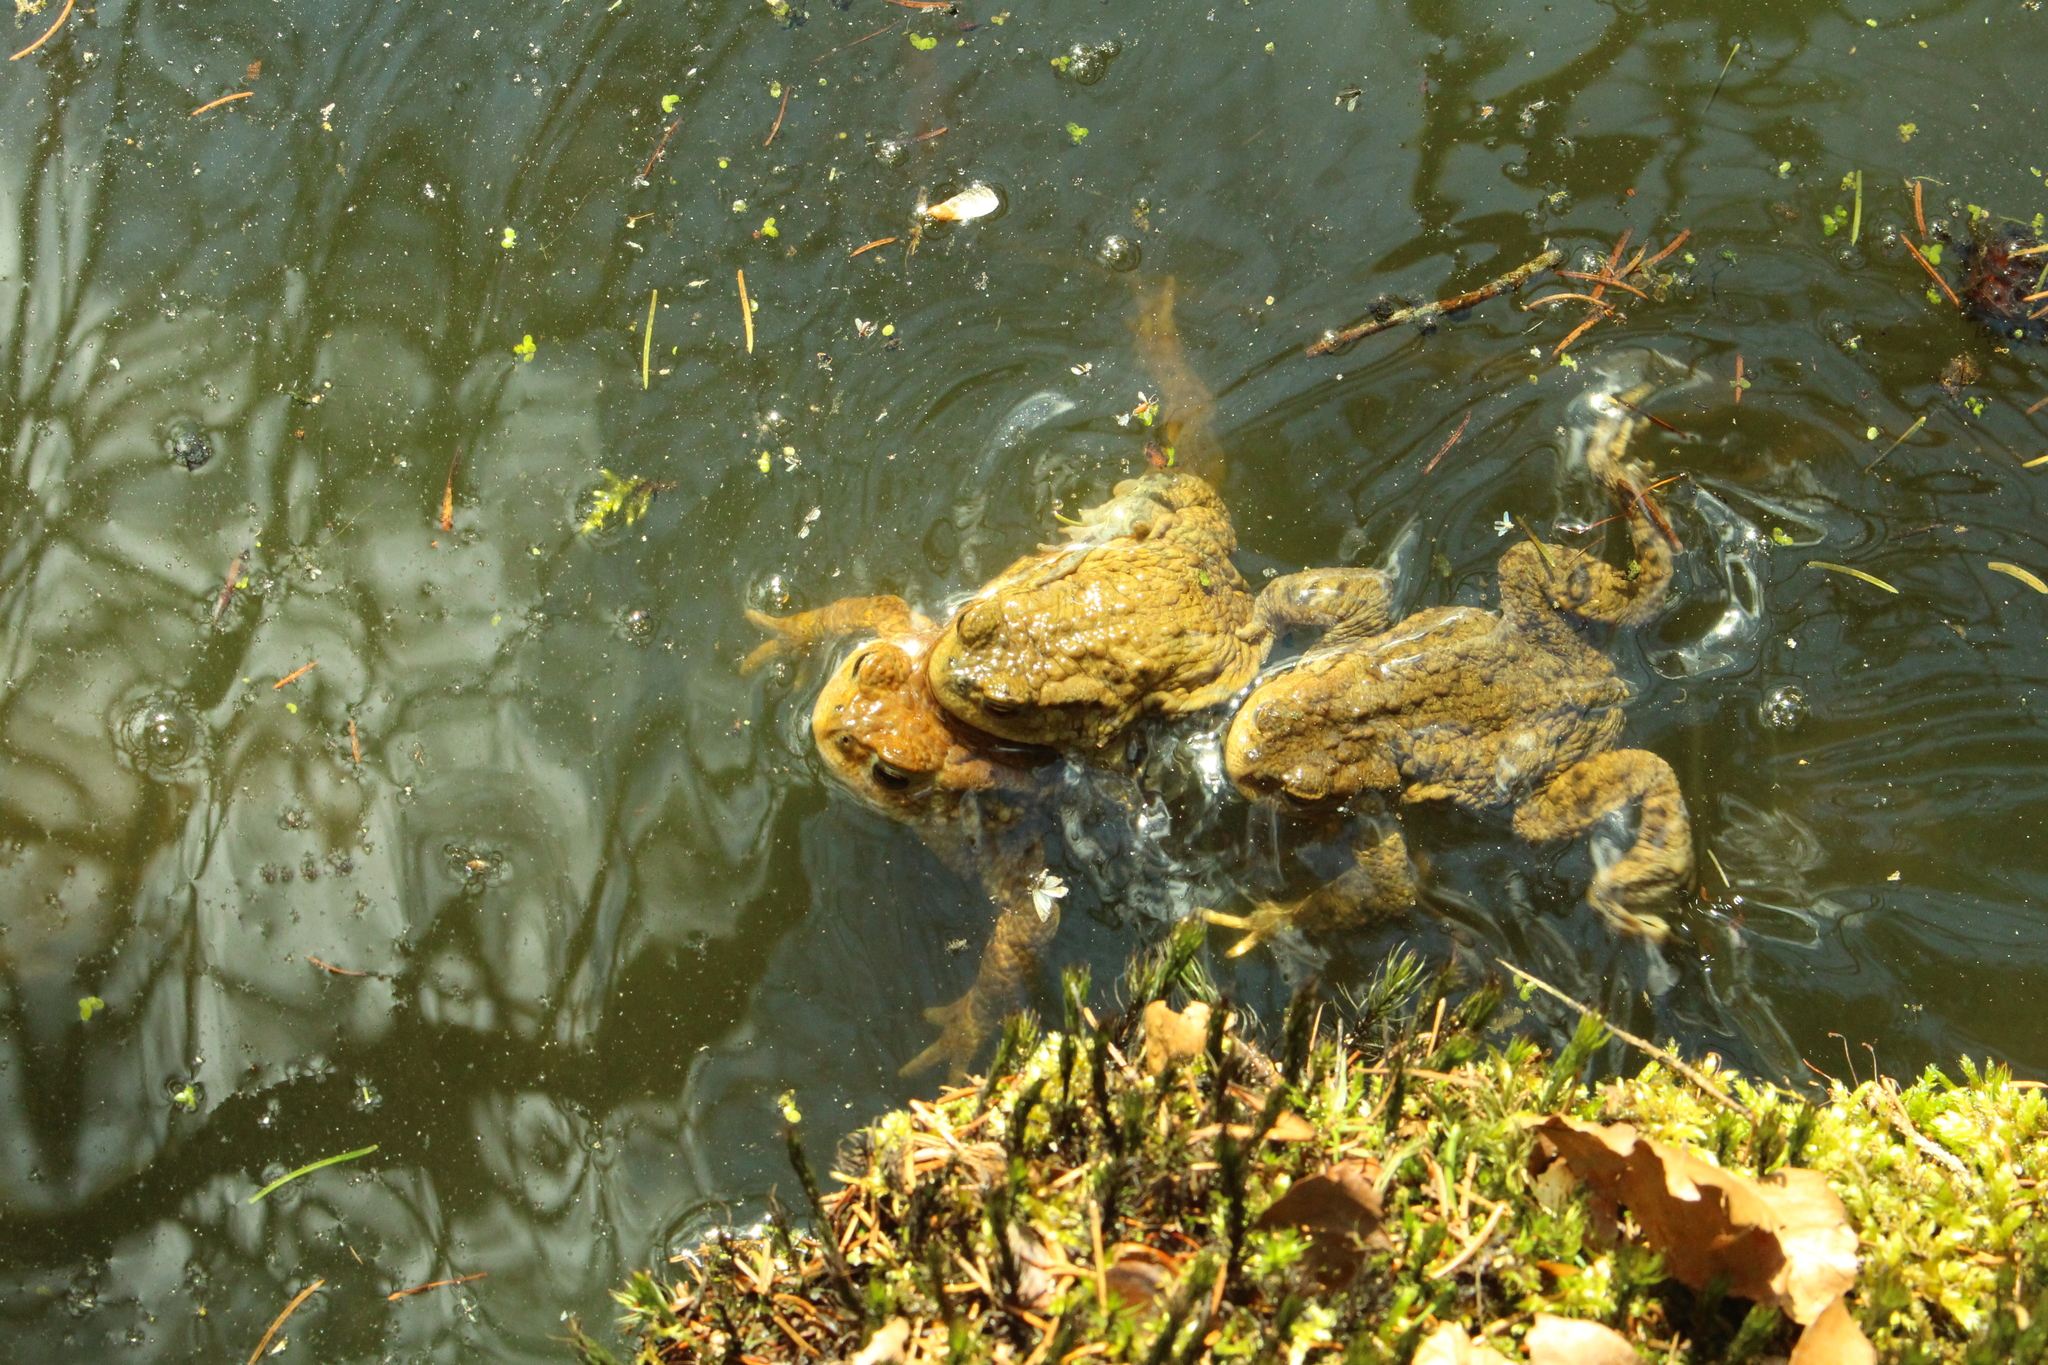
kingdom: Animalia
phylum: Chordata
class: Amphibia
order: Anura
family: Bufonidae
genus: Bufo
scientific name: Bufo bufo
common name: Common toad
